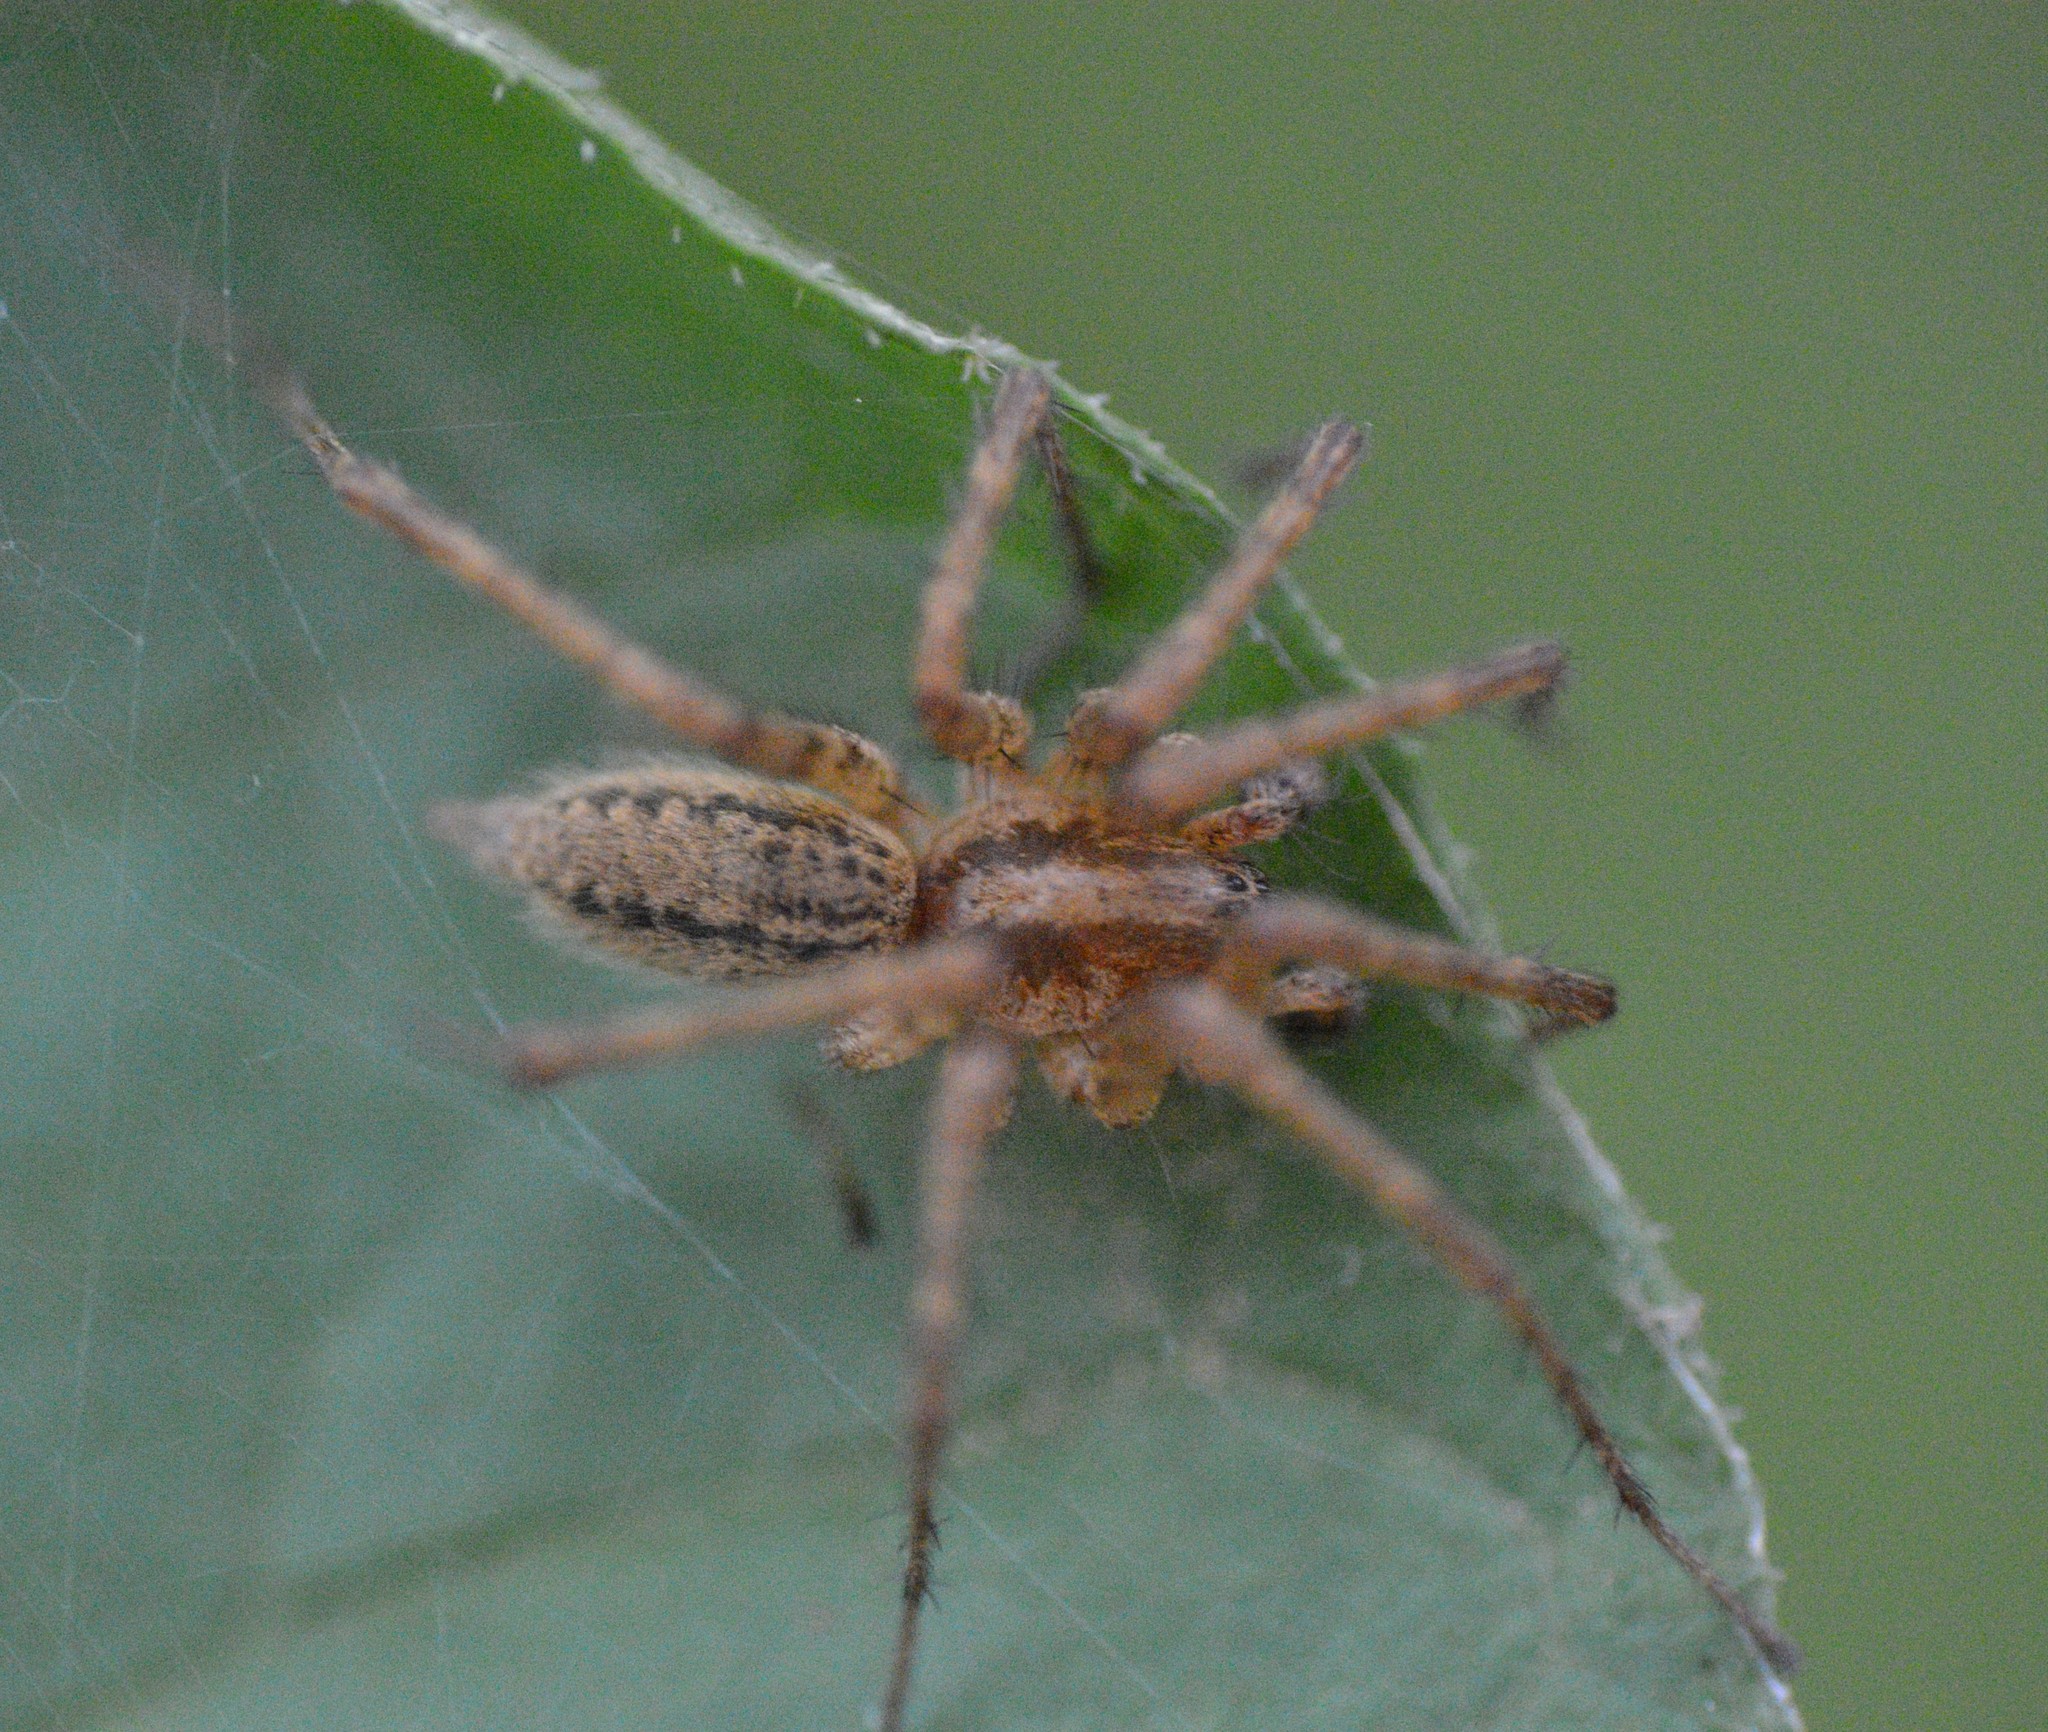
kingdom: Animalia
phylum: Arthropoda
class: Arachnida
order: Araneae
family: Agelenidae
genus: Agelenopsis
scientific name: Agelenopsis
